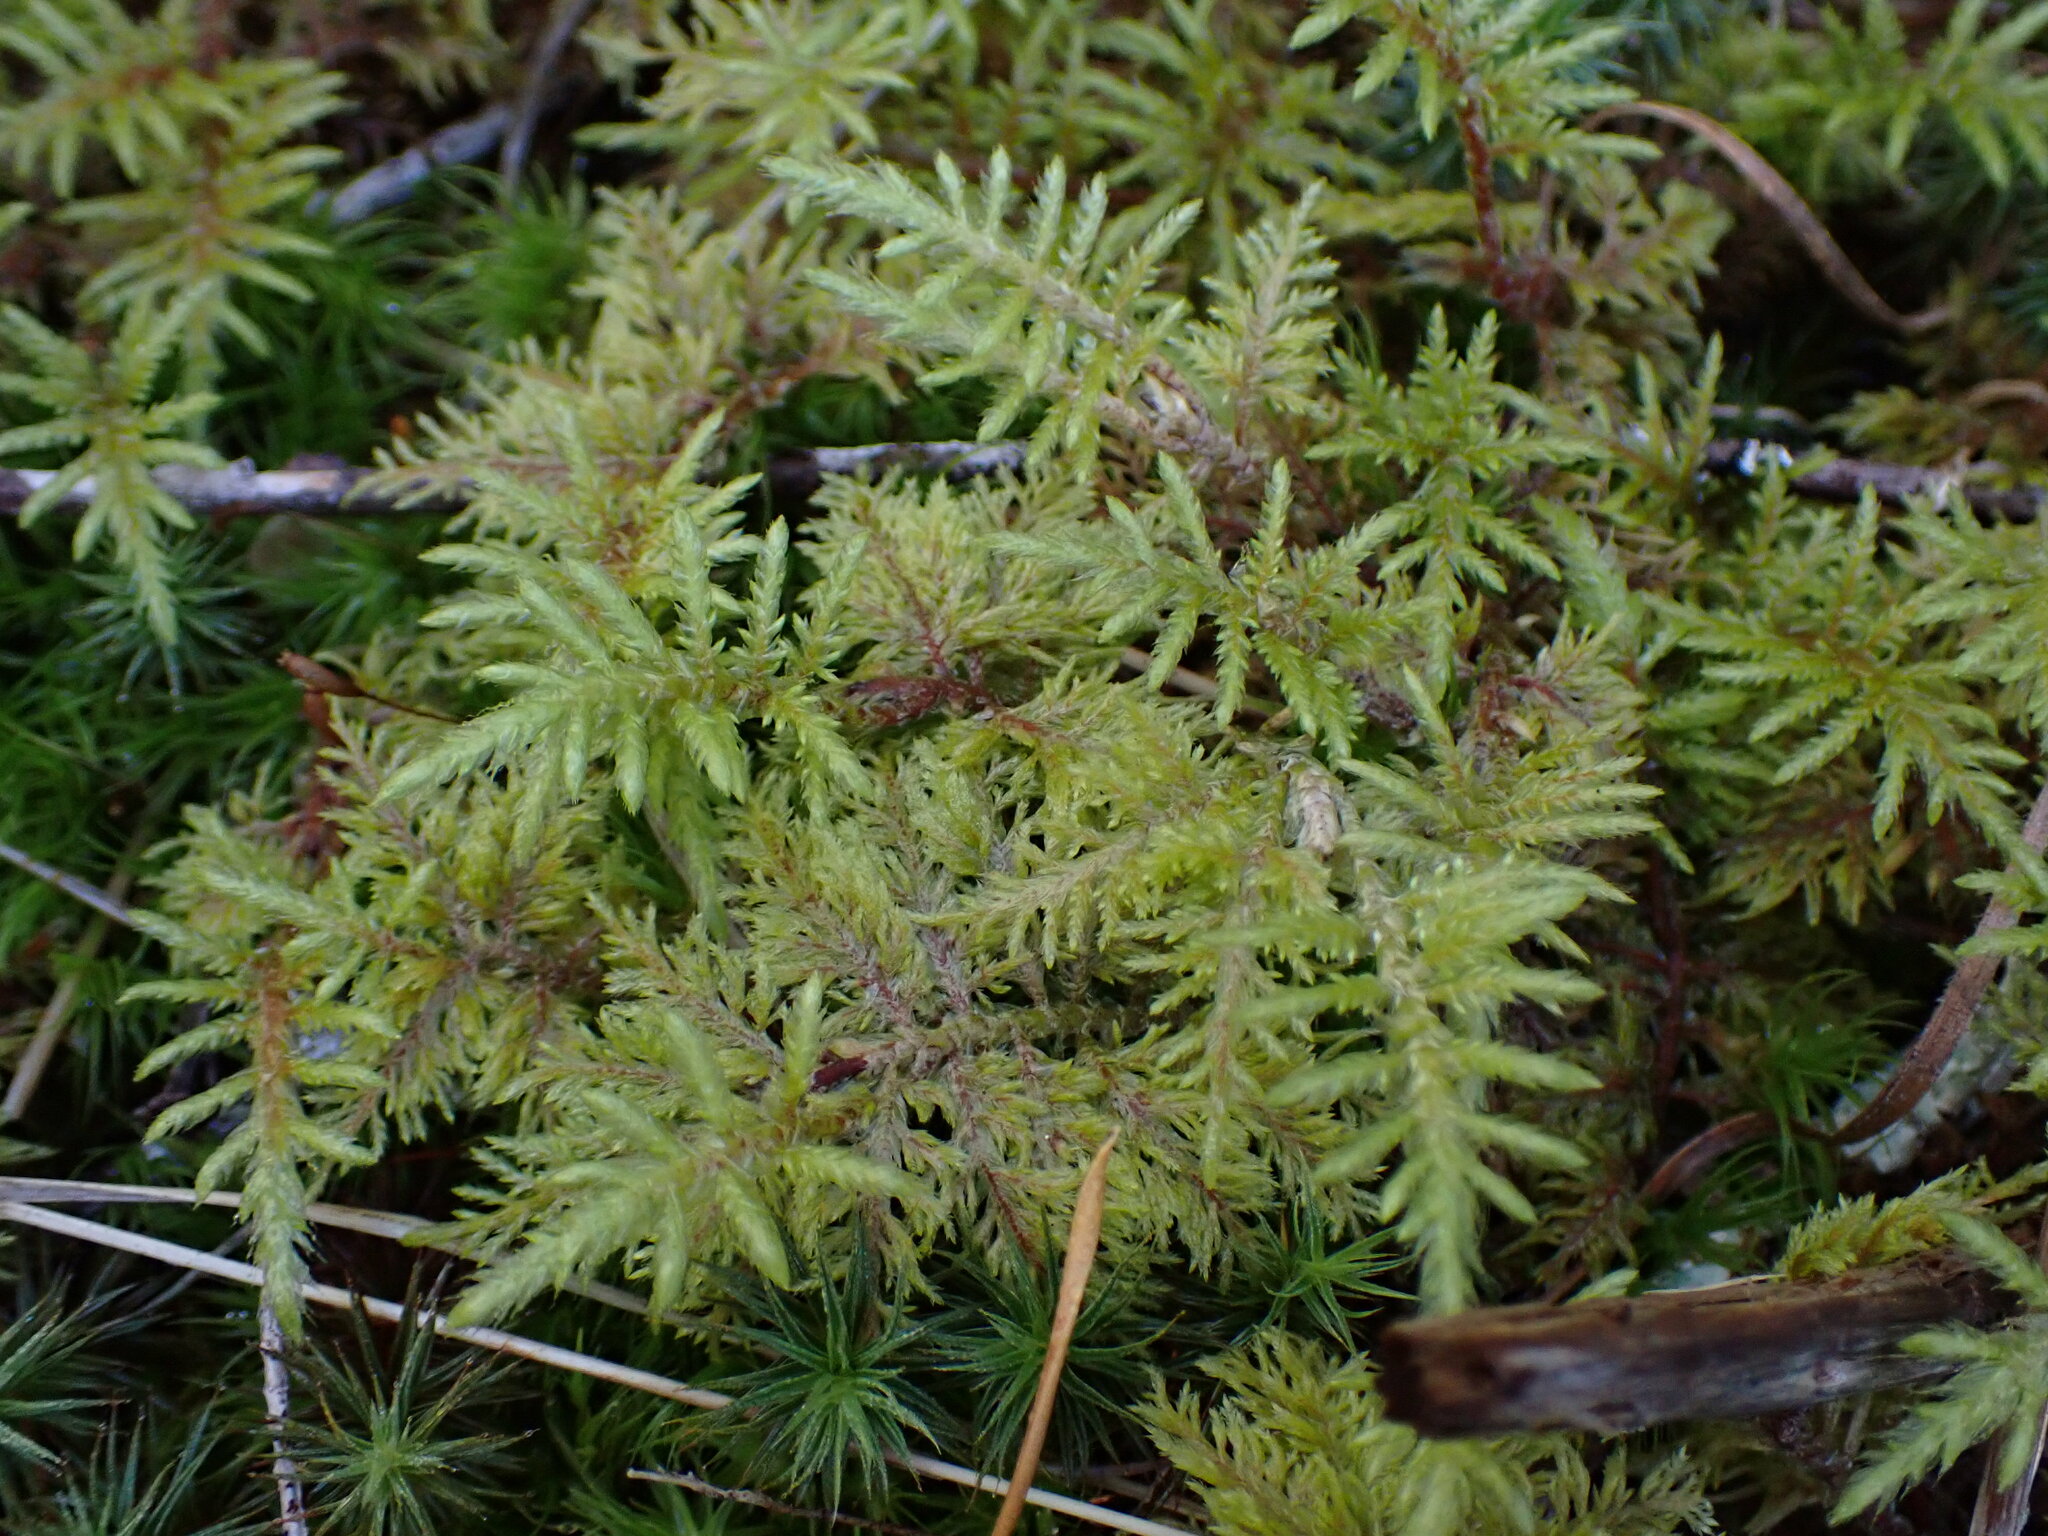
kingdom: Plantae
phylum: Bryophyta
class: Bryopsida
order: Hypnales
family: Hylocomiaceae
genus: Hylocomium
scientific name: Hylocomium splendens
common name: Stairstep moss
